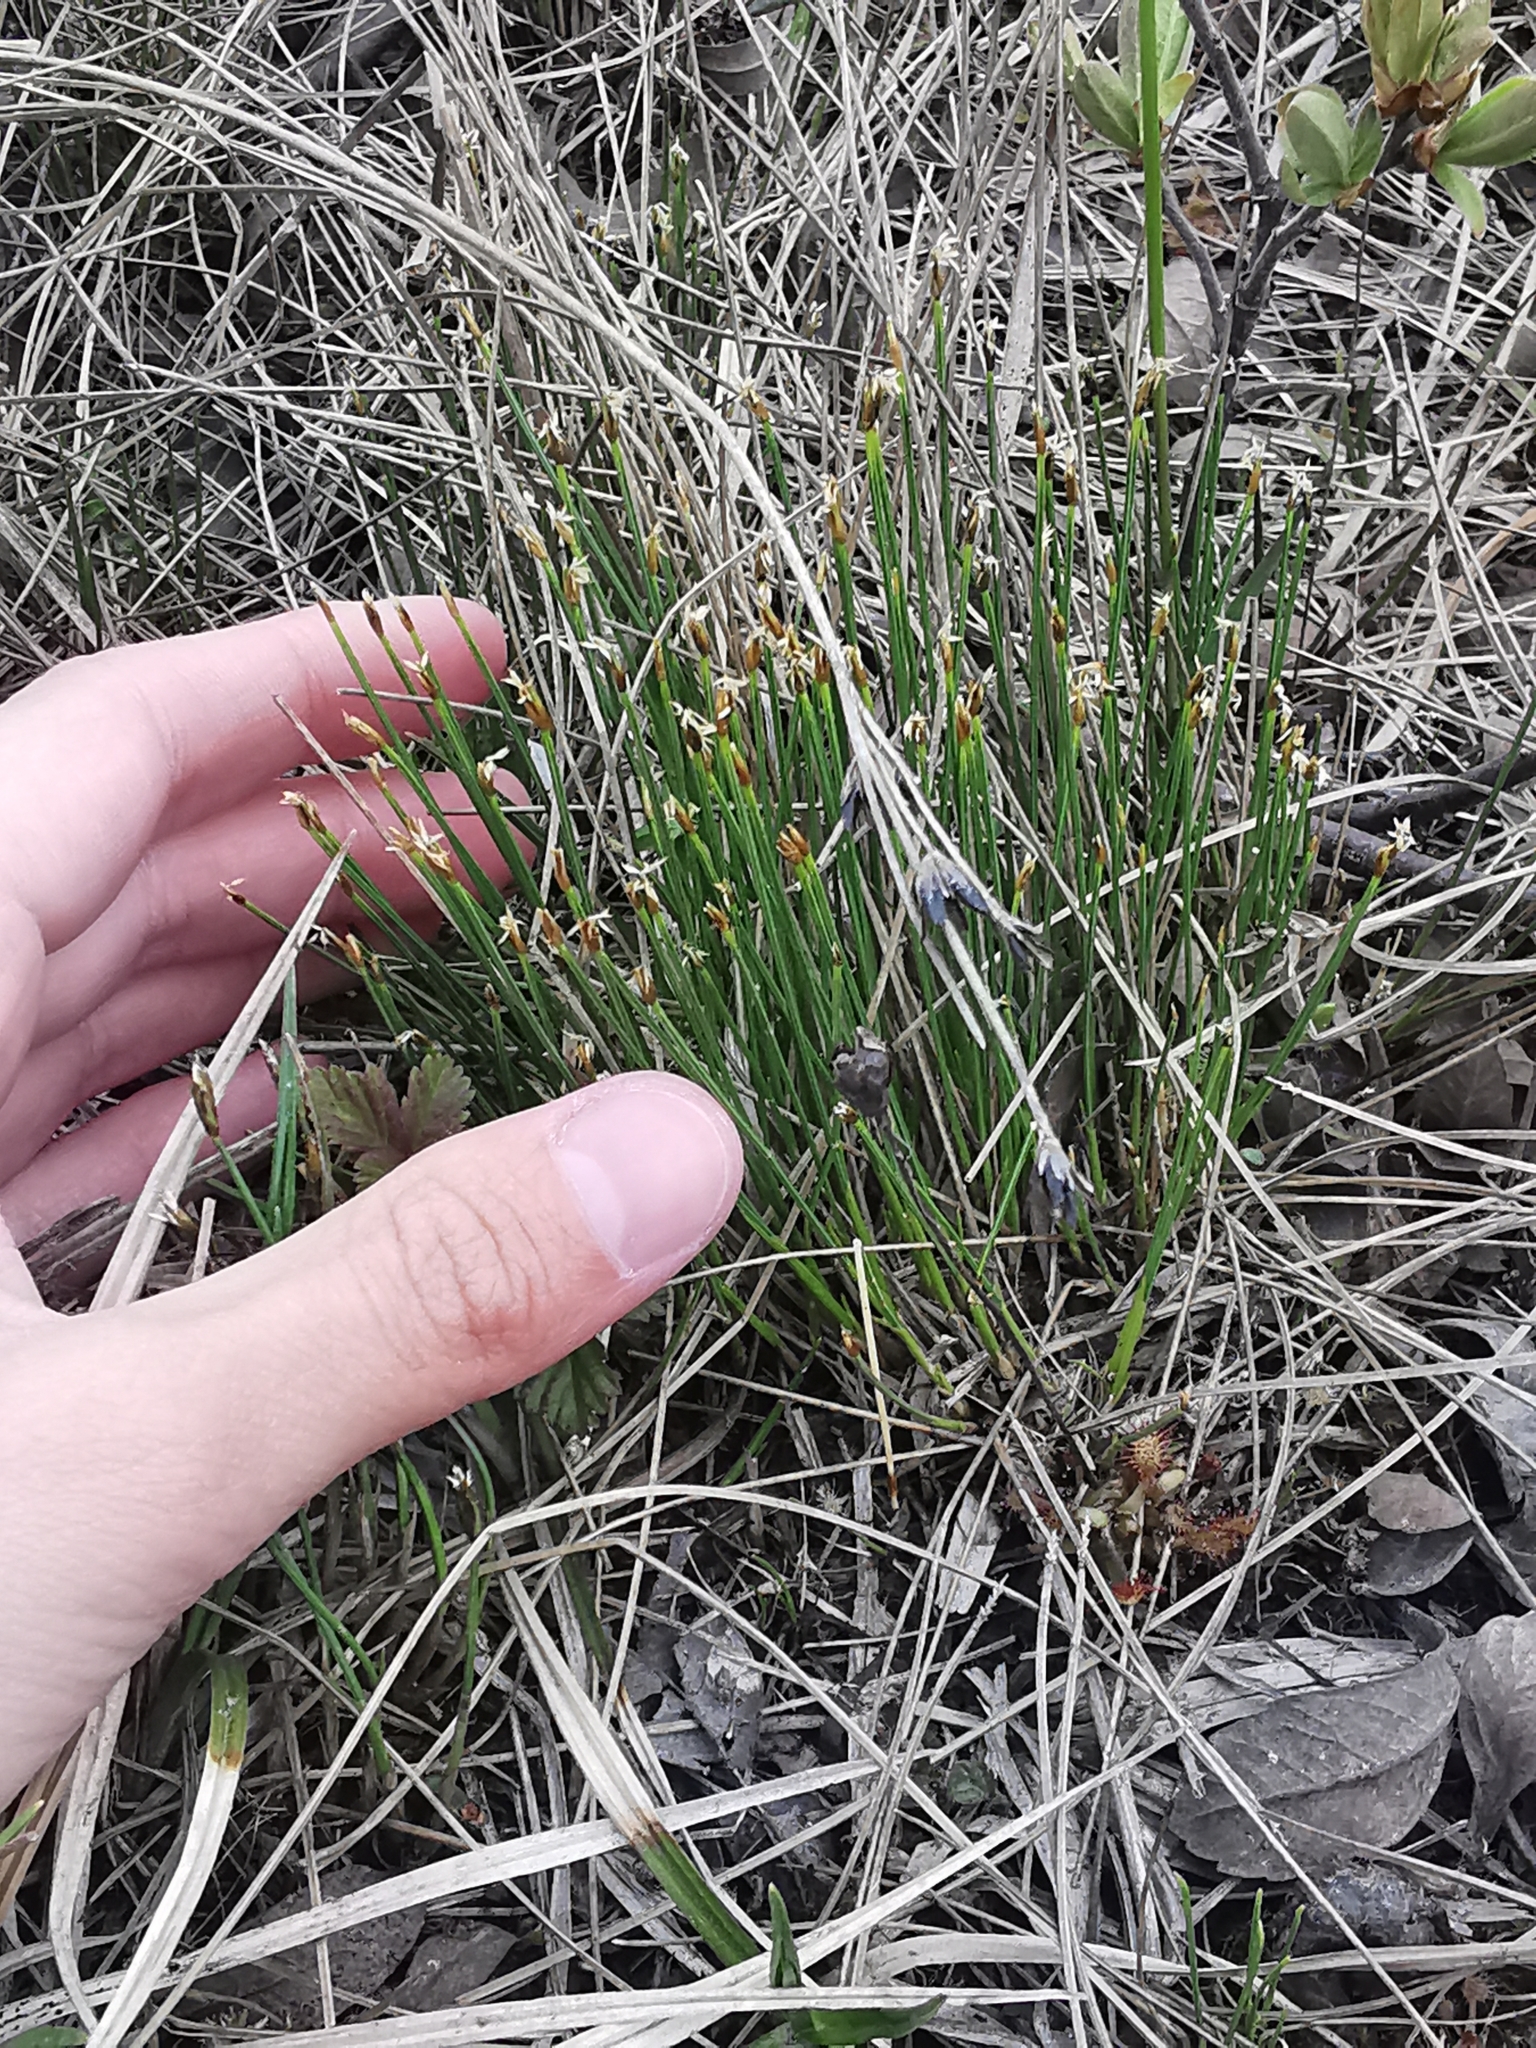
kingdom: Plantae
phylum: Tracheophyta
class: Liliopsida
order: Poales
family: Cyperaceae
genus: Trichophorum
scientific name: Trichophorum cespitosum
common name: Cespitose bulrush
